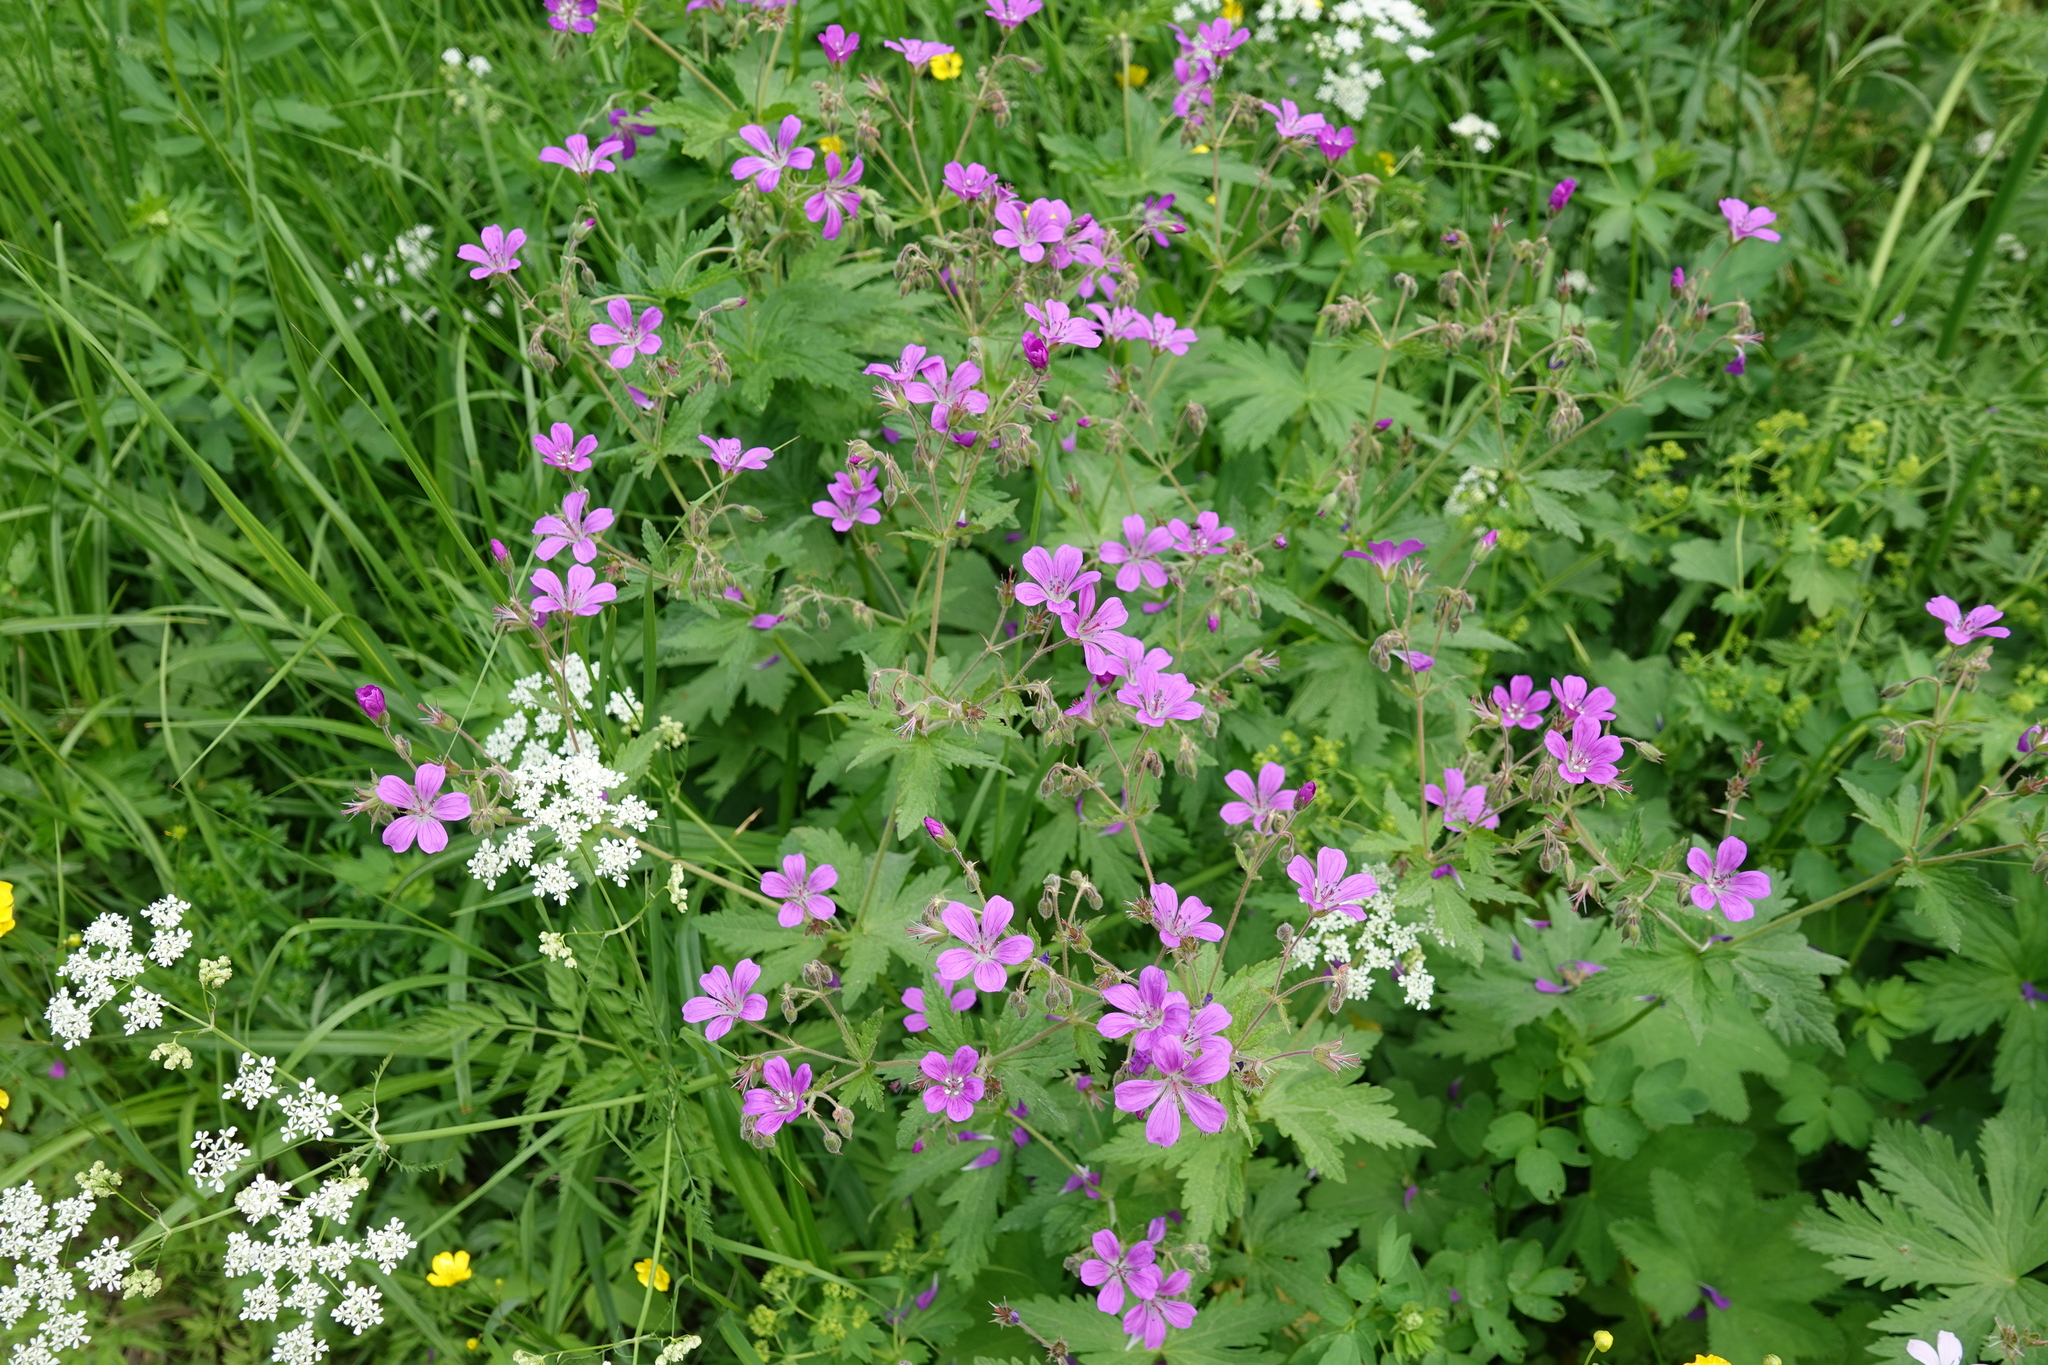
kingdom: Plantae
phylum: Tracheophyta
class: Magnoliopsida
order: Geraniales
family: Geraniaceae
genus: Geranium
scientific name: Geranium sylvaticum
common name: Wood crane's-bill
